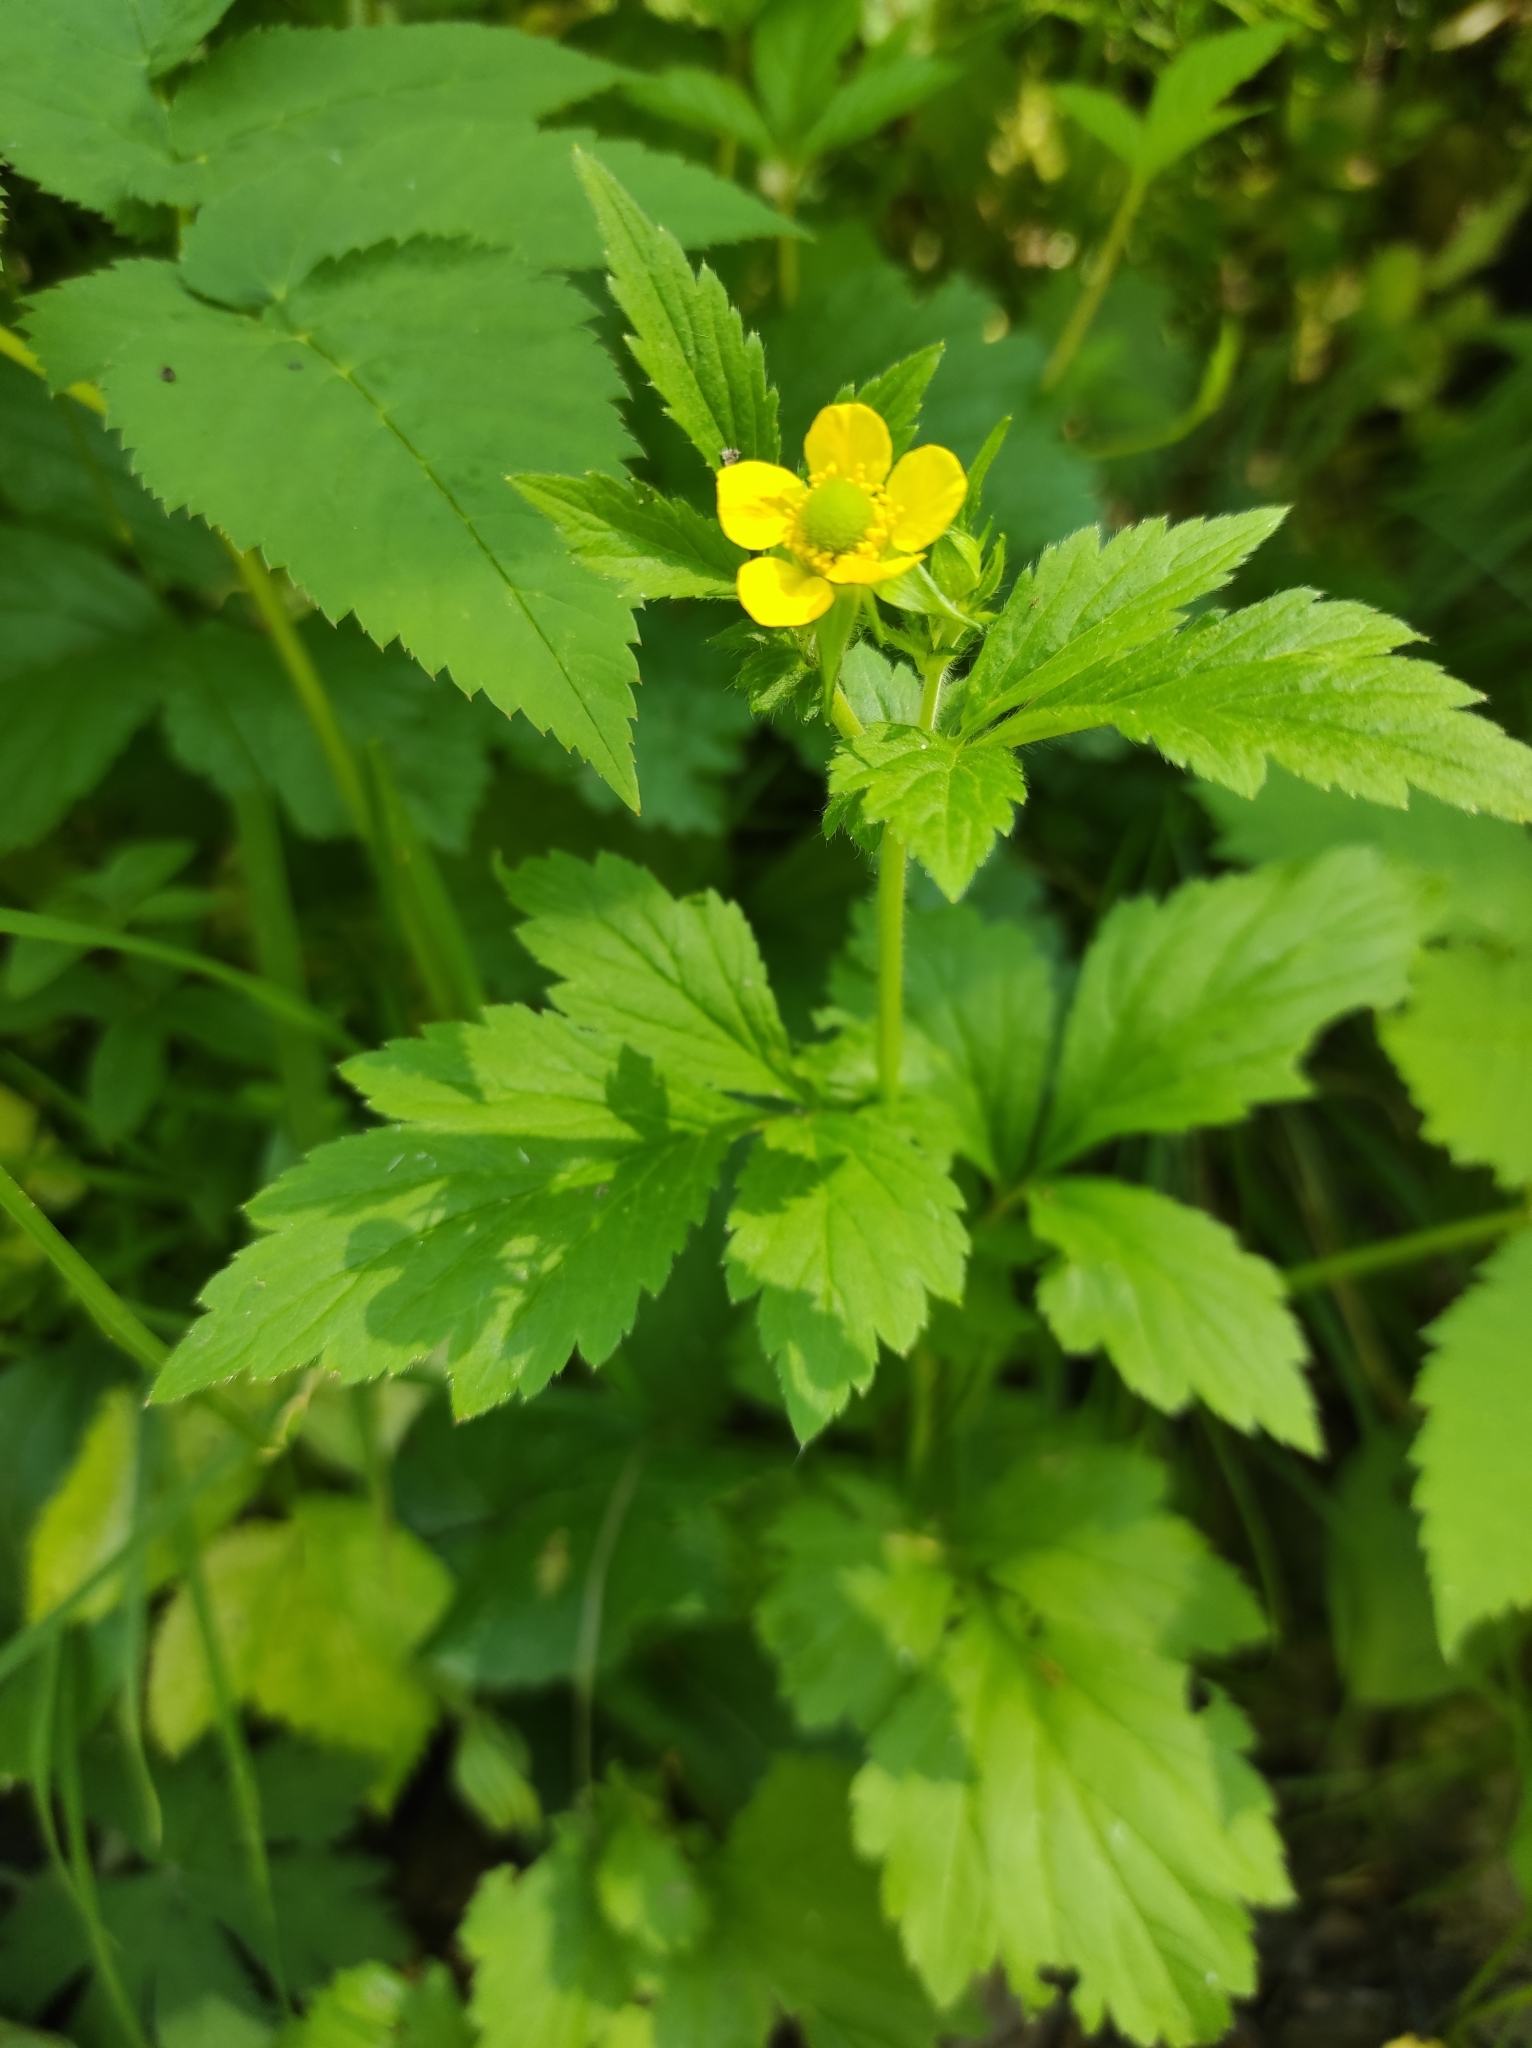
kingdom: Plantae
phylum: Tracheophyta
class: Magnoliopsida
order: Rosales
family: Rosaceae
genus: Geum
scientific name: Geum aleppicum
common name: Yellow avens
